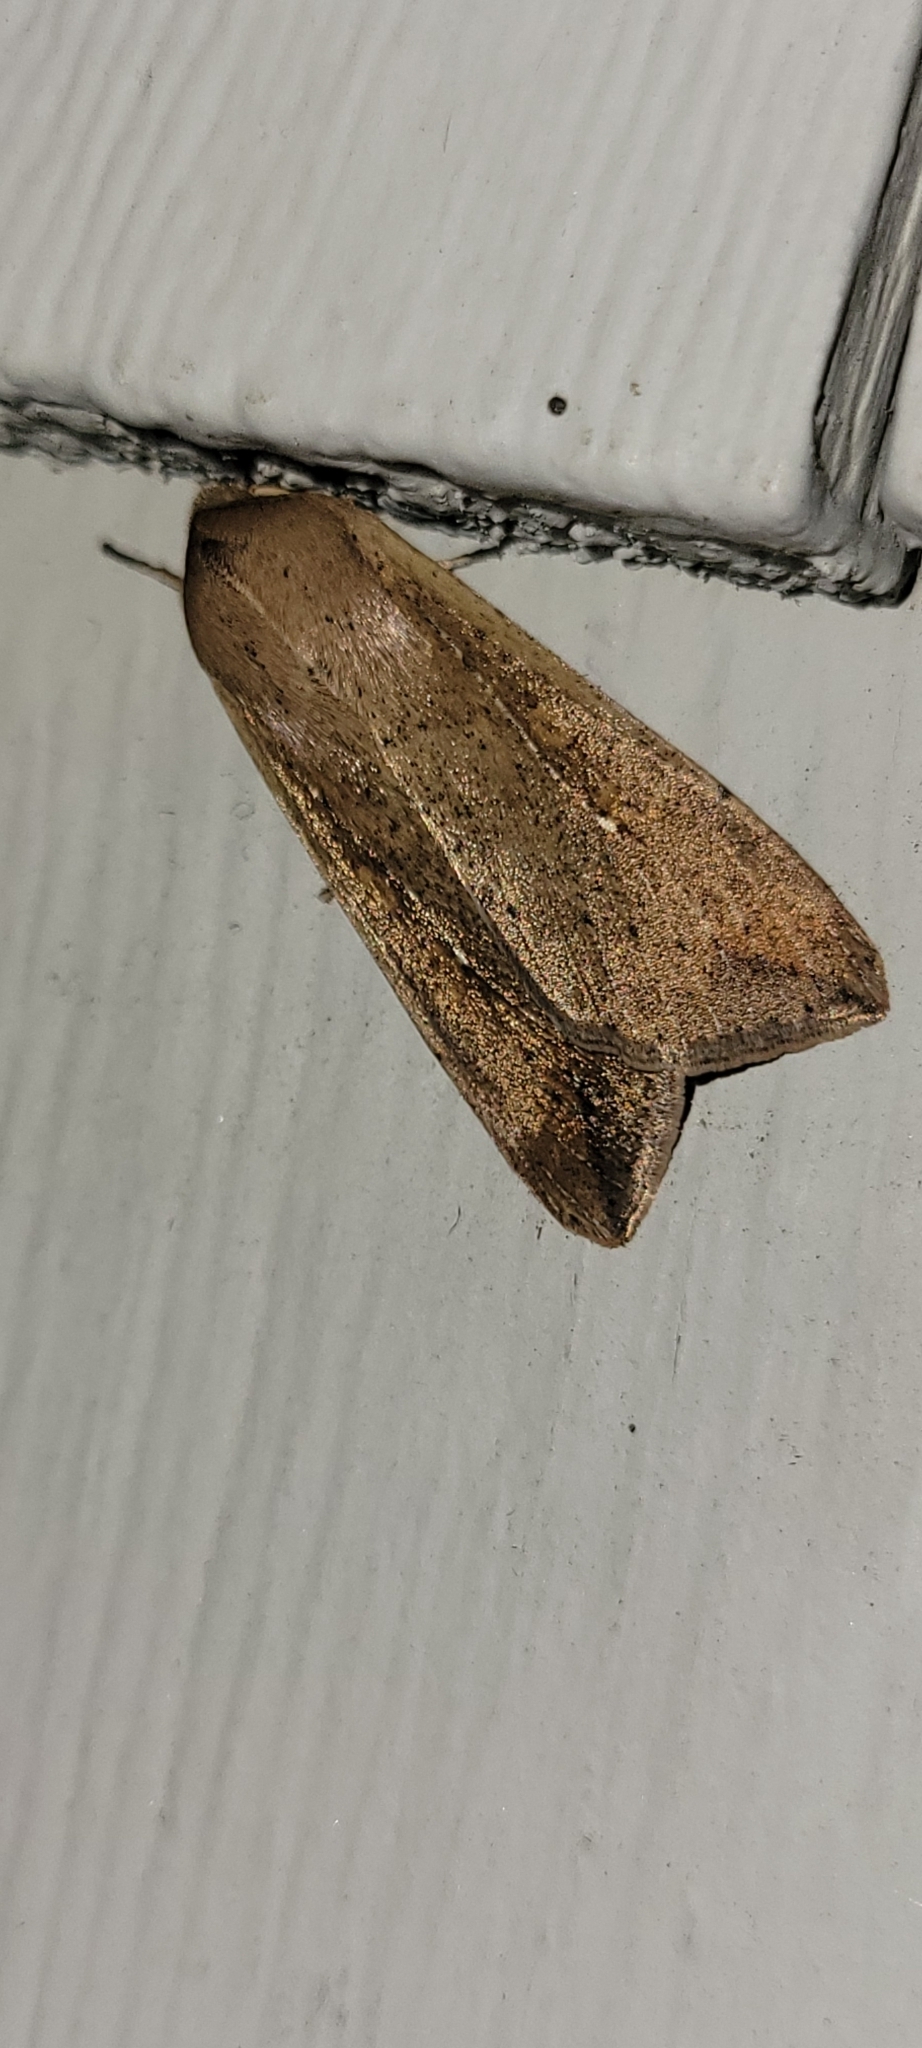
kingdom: Animalia
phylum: Arthropoda
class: Insecta
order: Lepidoptera
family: Noctuidae
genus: Mythimna
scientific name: Mythimna unipuncta
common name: White-speck
